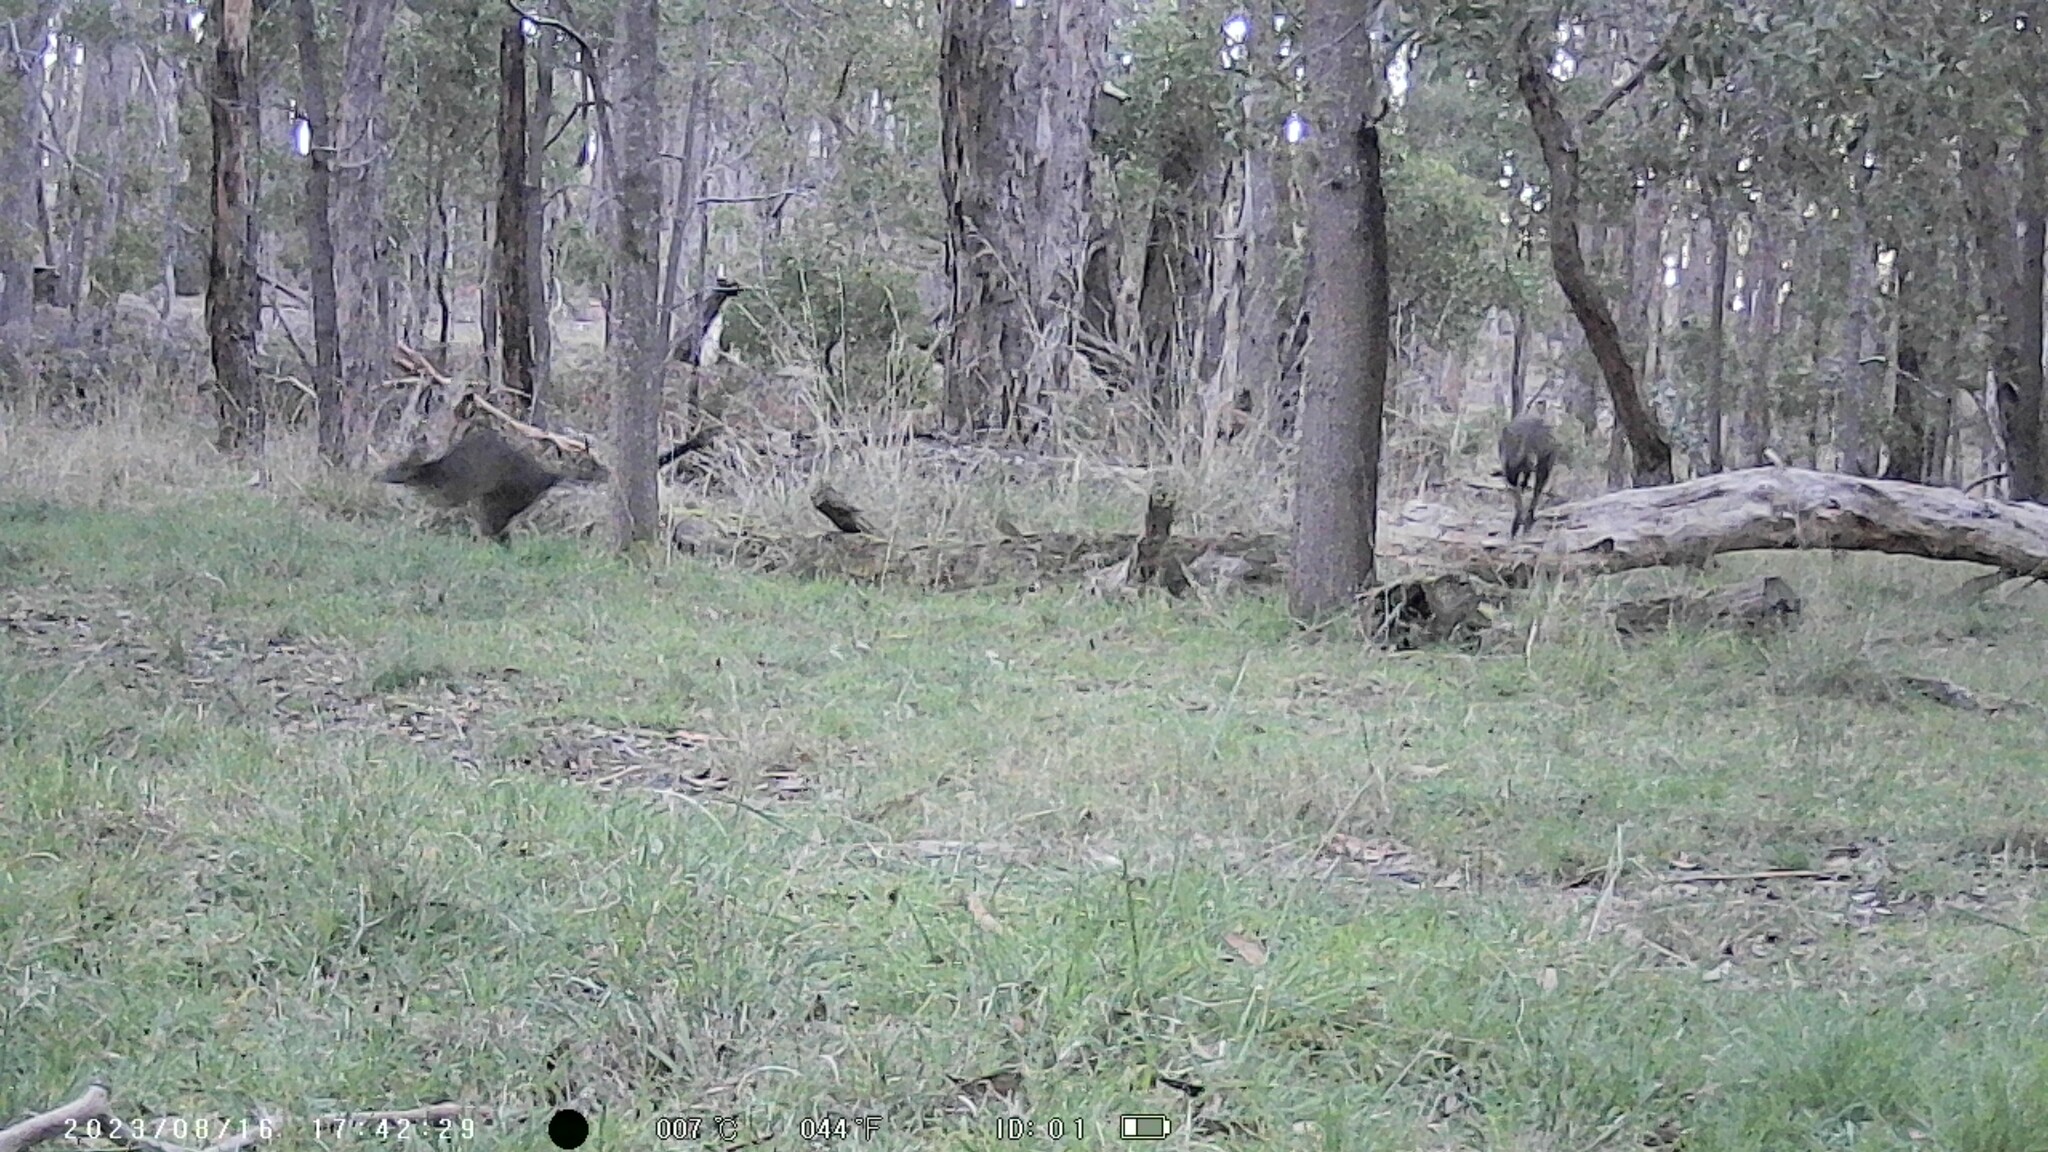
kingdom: Animalia
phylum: Chordata
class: Mammalia
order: Diprotodontia
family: Macropodidae
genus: Wallabia
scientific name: Wallabia bicolor
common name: Swamp wallaby
